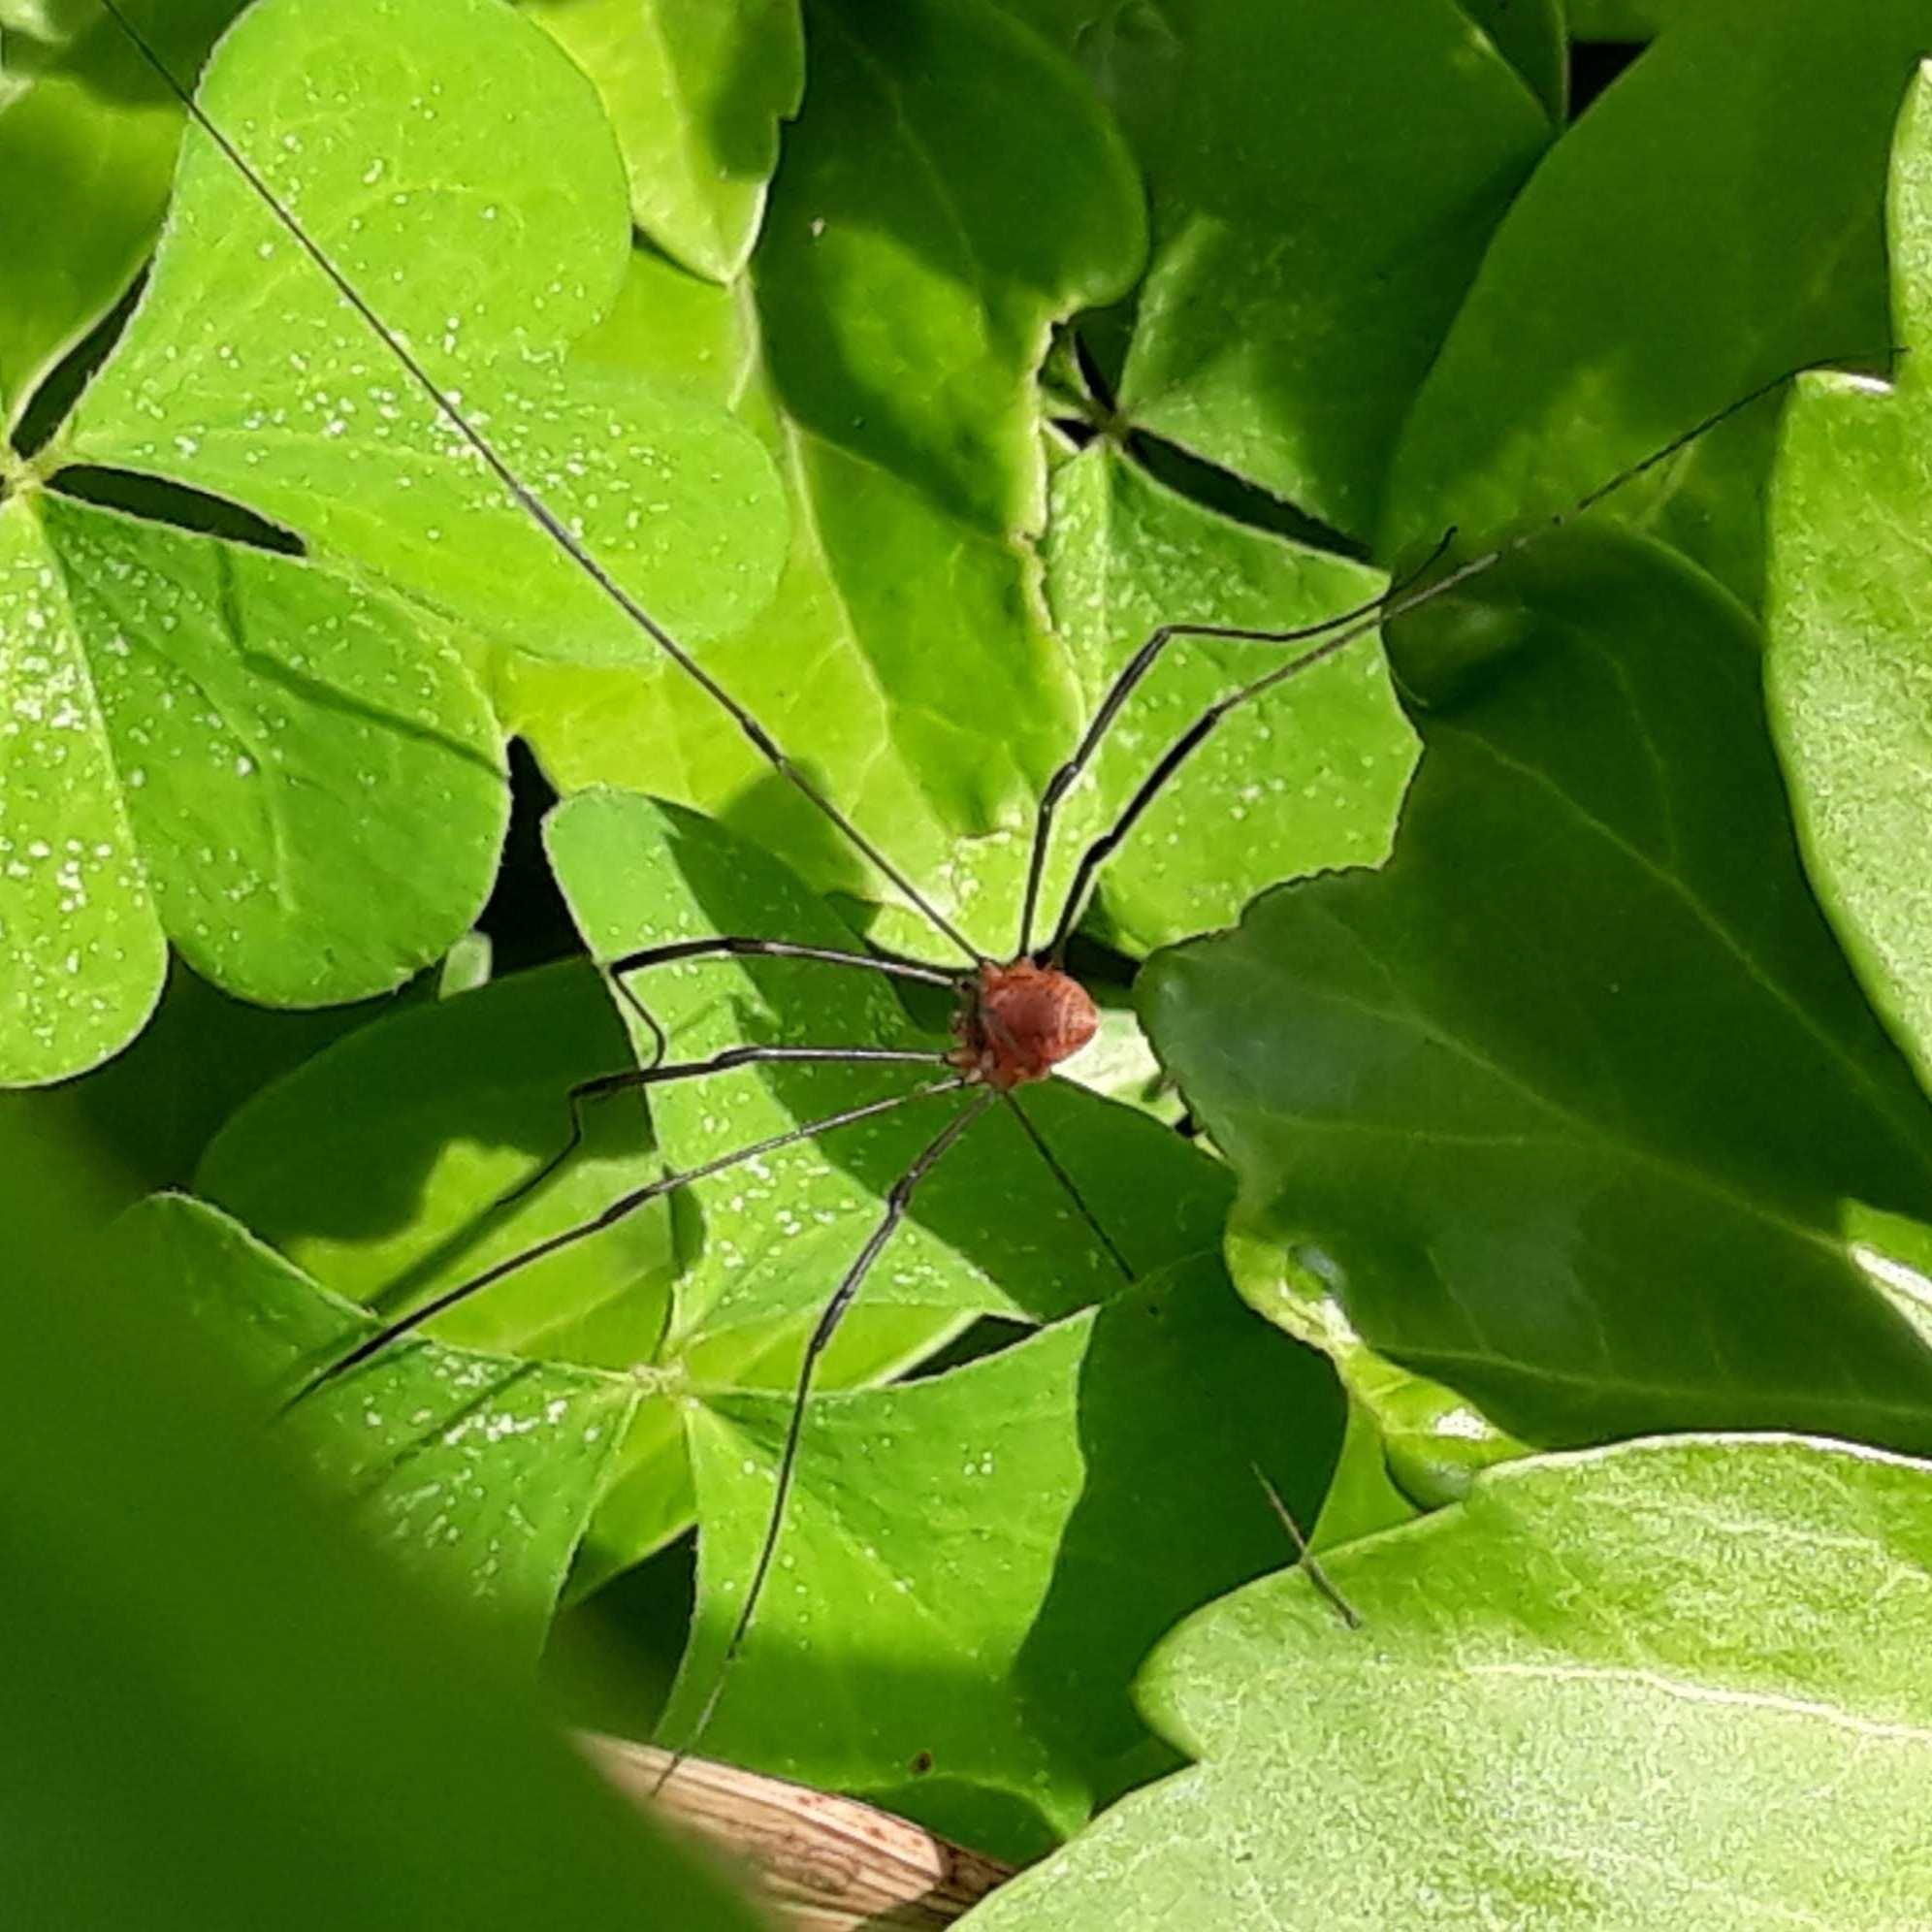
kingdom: Animalia
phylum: Arthropoda
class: Arachnida
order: Opiliones
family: Sclerosomatidae
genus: Leiobunum
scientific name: Leiobunum politum
